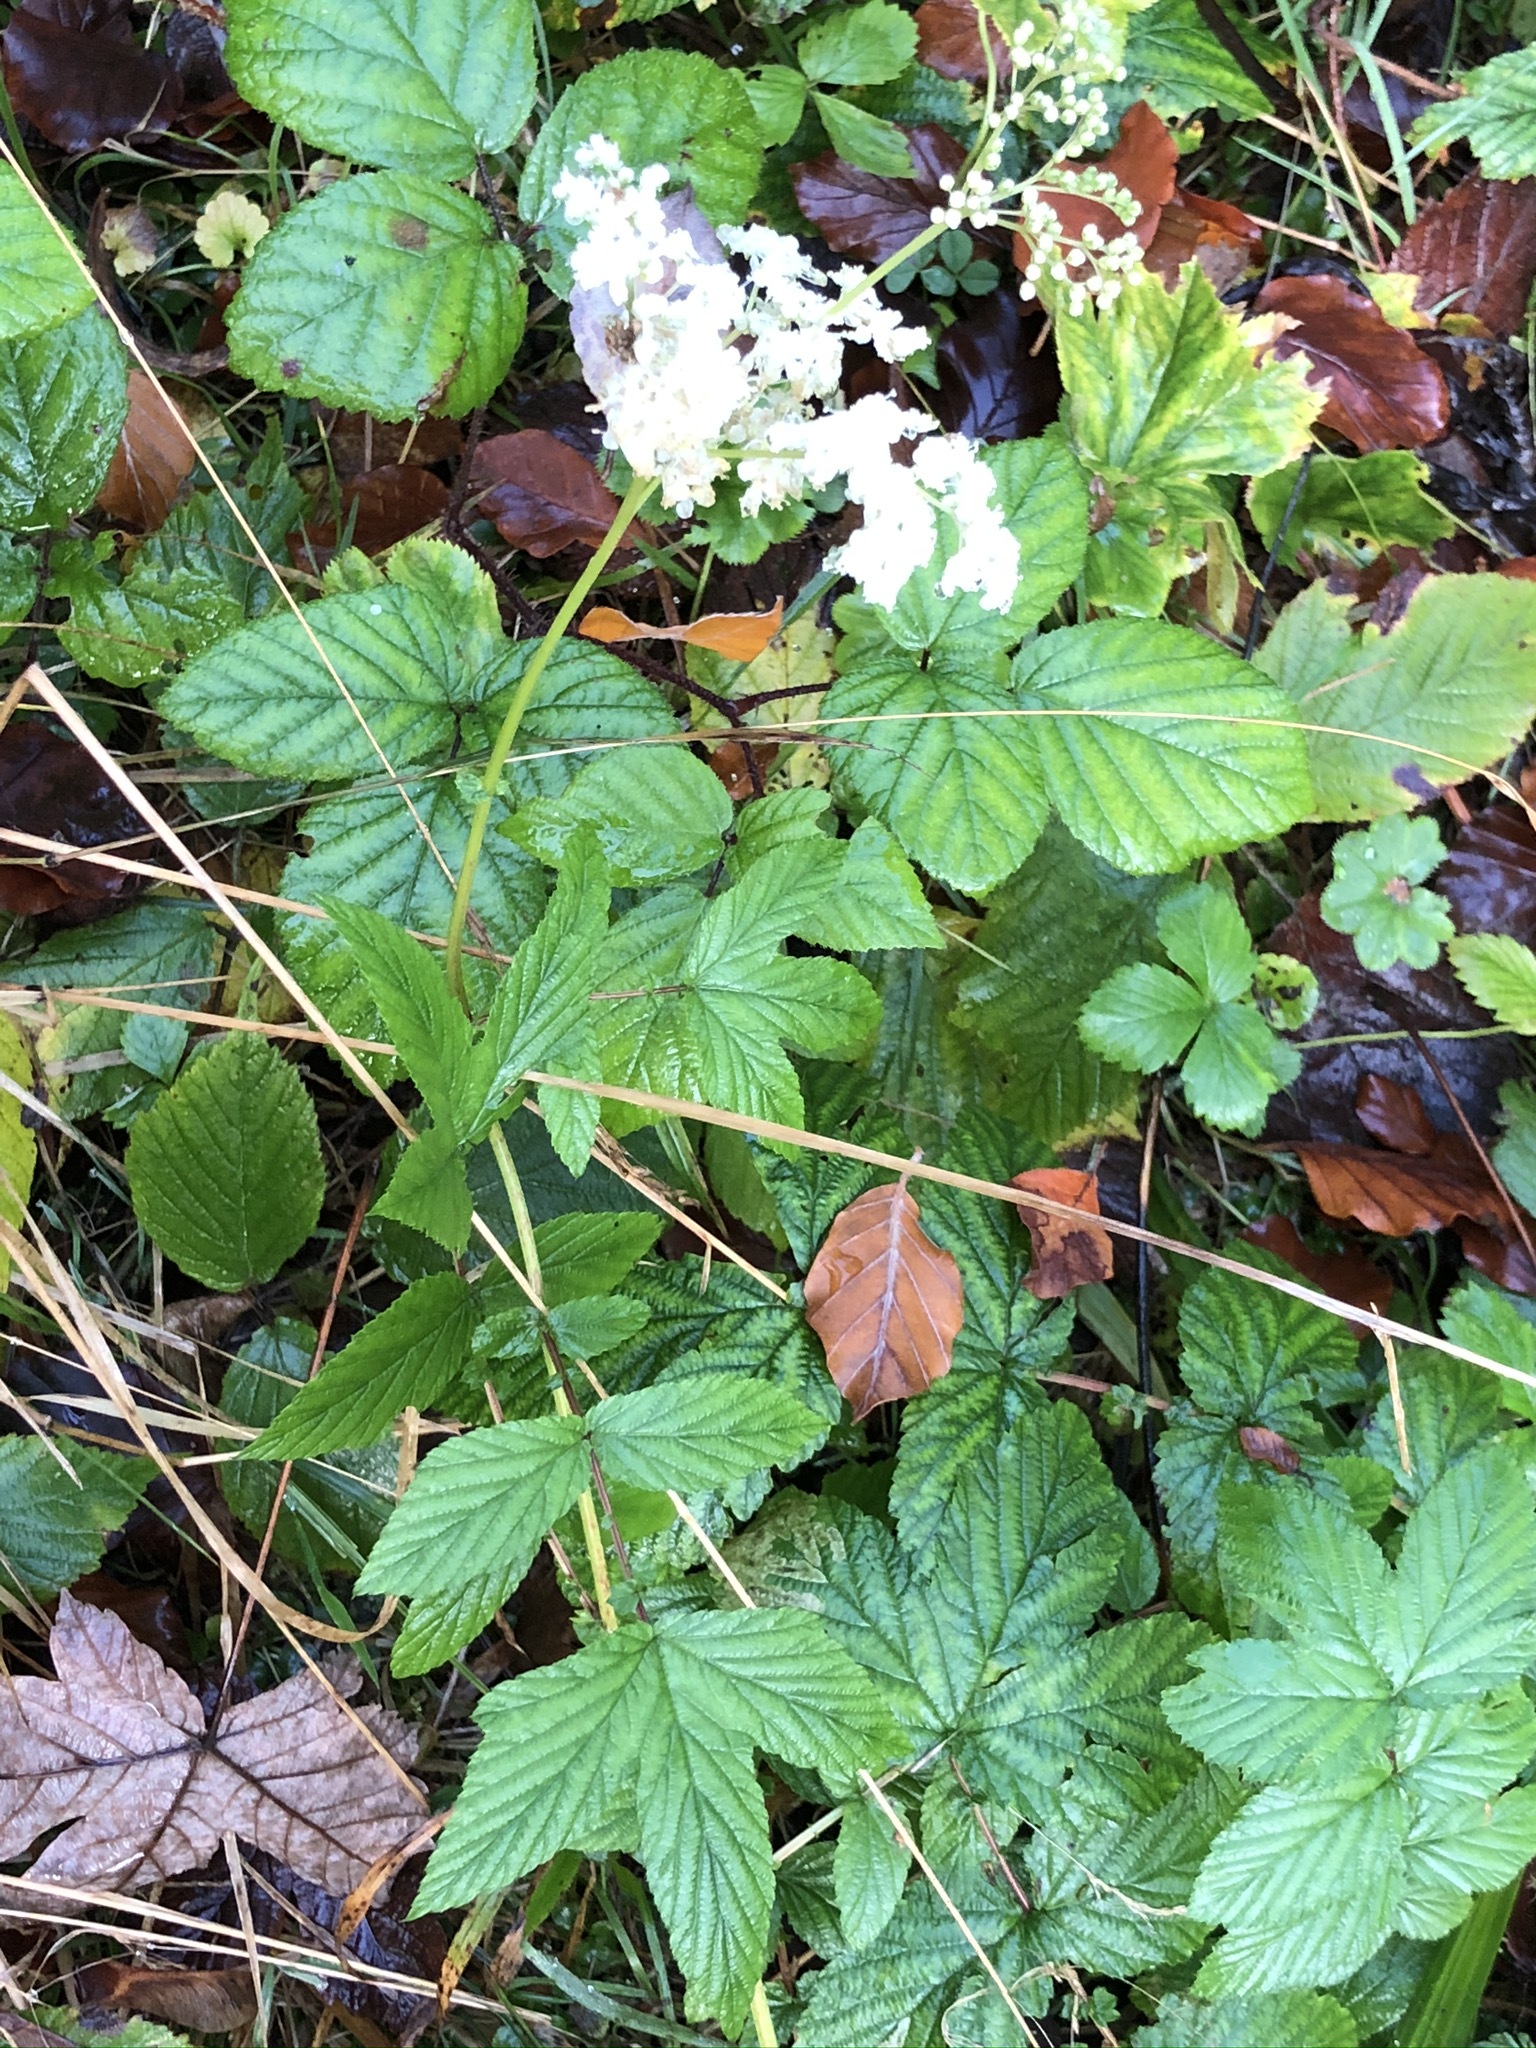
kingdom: Plantae
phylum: Tracheophyta
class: Magnoliopsida
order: Rosales
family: Rosaceae
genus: Filipendula
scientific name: Filipendula ulmaria
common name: Meadowsweet
